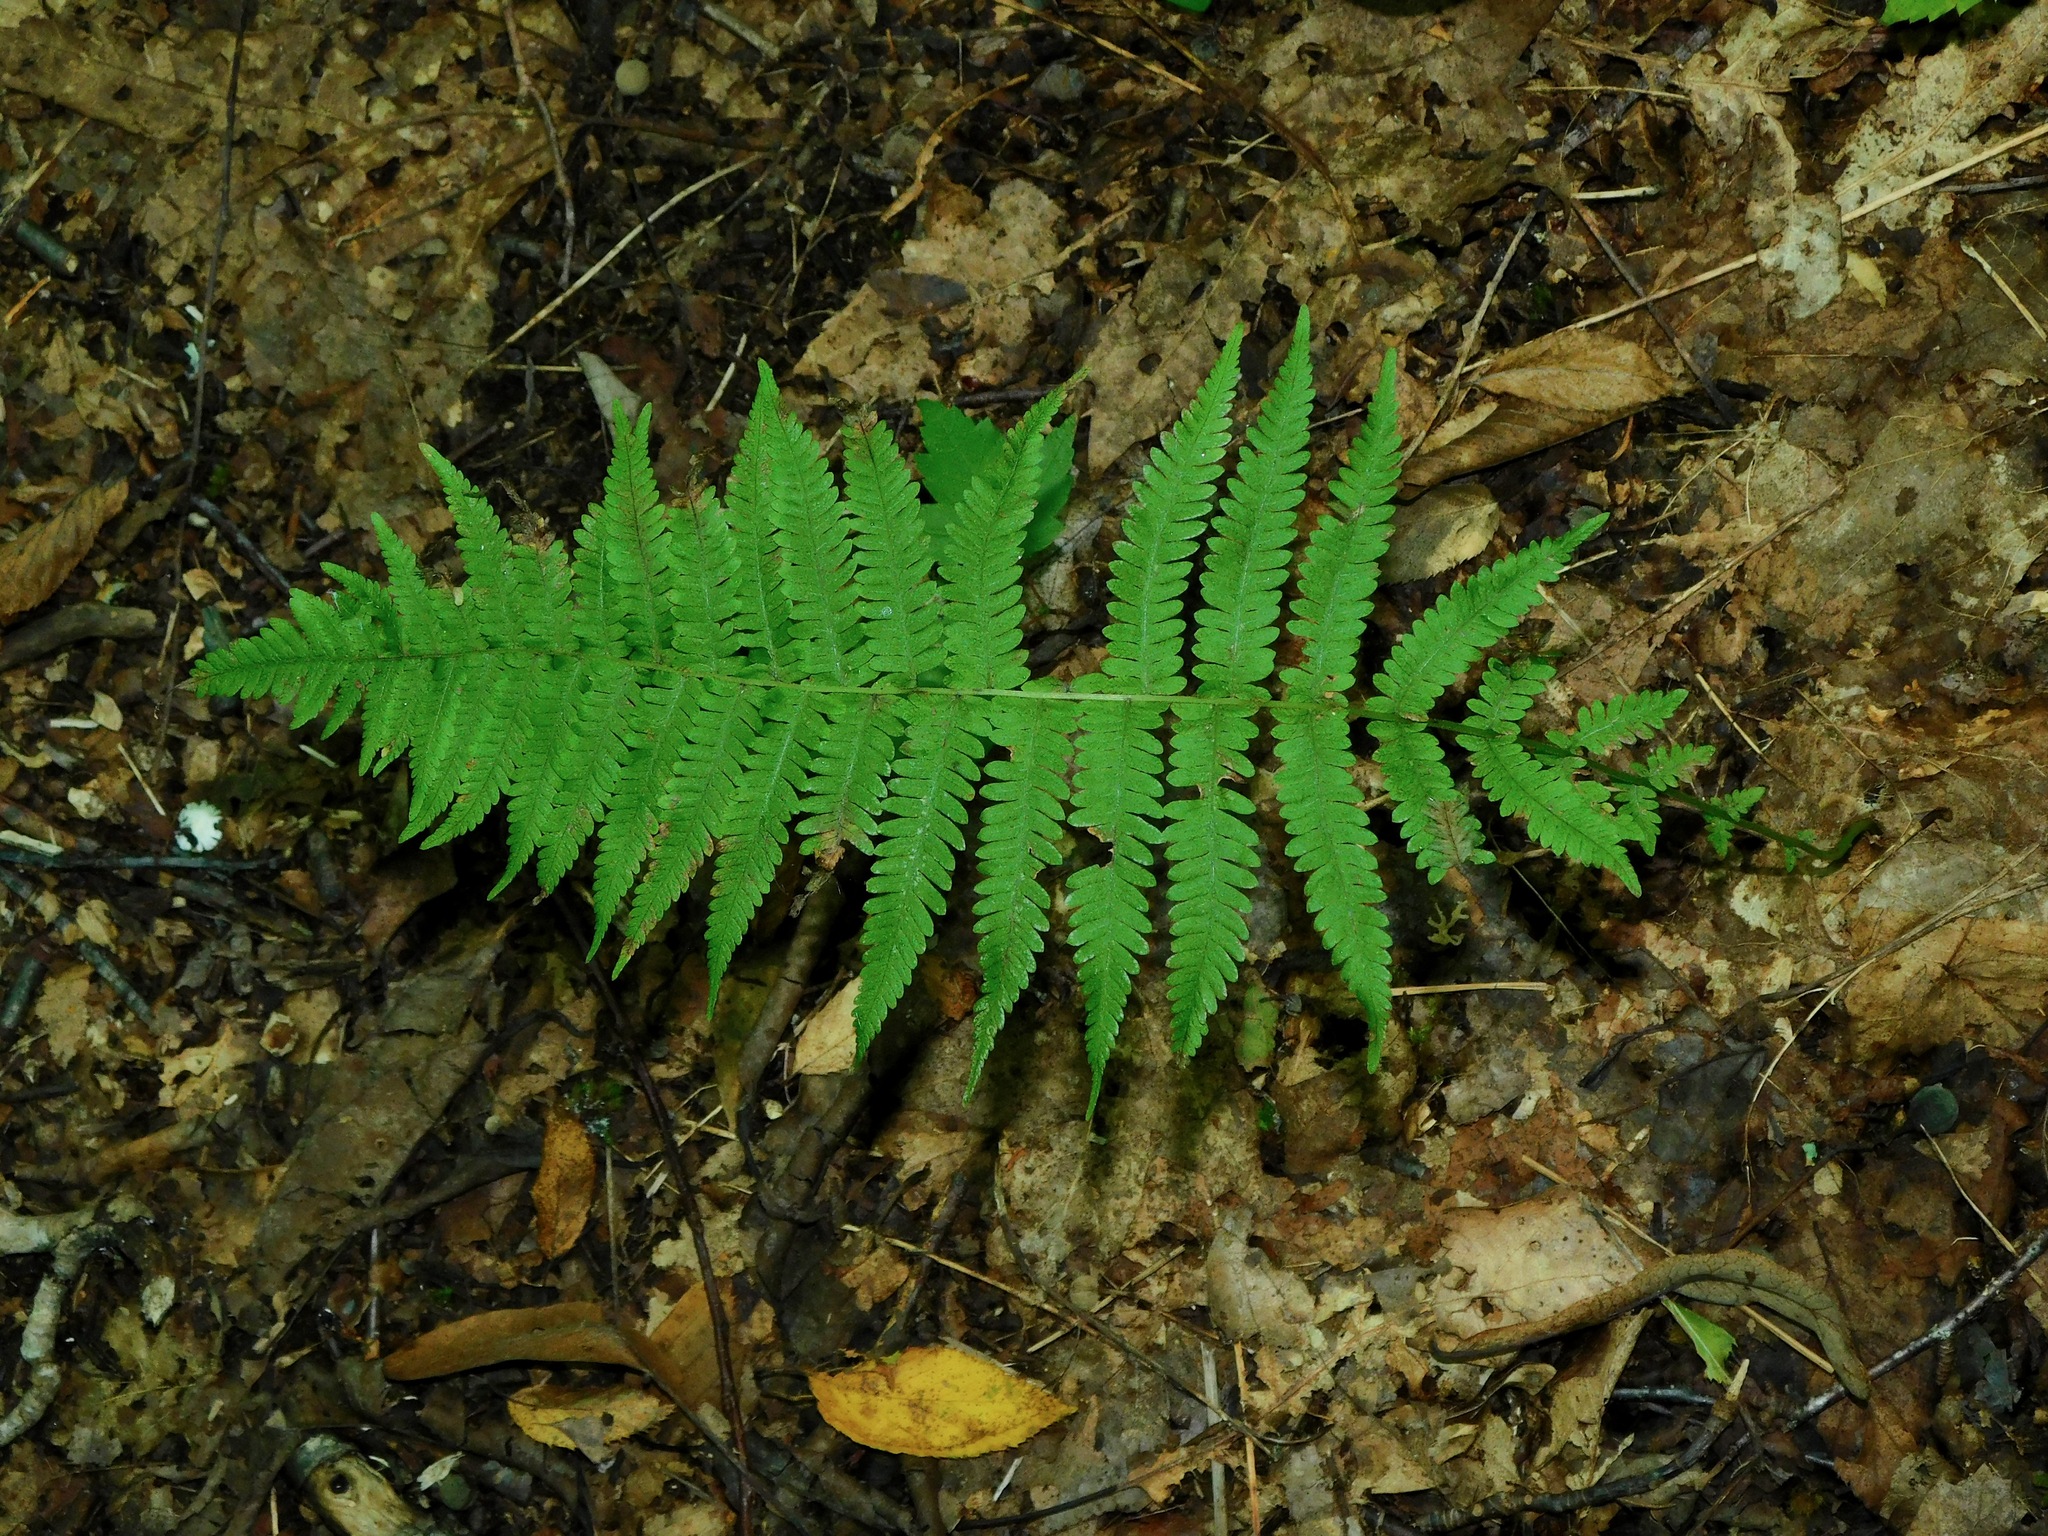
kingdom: Plantae
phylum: Tracheophyta
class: Polypodiopsida
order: Polypodiales
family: Thelypteridaceae
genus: Amauropelta
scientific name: Amauropelta noveboracensis
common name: New york fern
